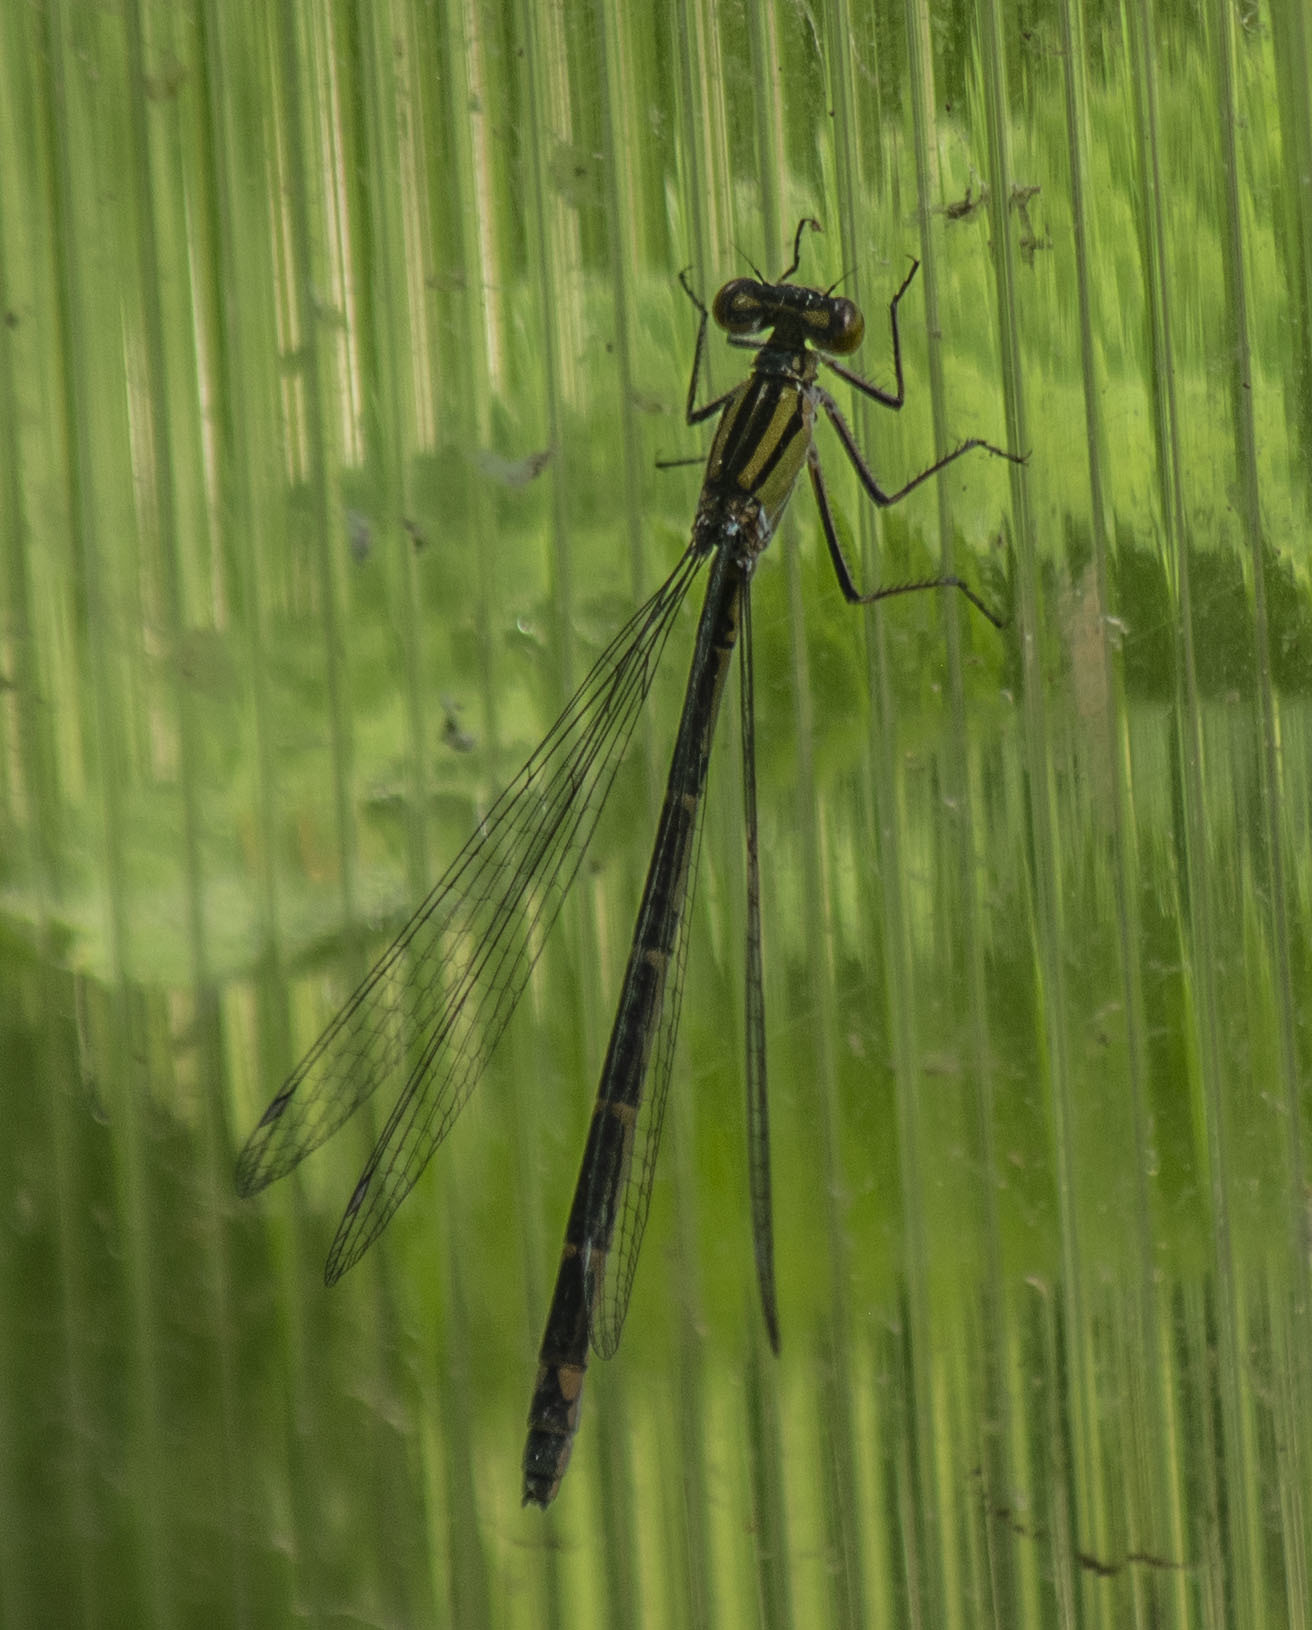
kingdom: Animalia
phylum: Arthropoda
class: Insecta
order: Odonata
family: Coenagrionidae
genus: Enallagma
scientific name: Enallagma cyathigerum
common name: Common blue damselfly
